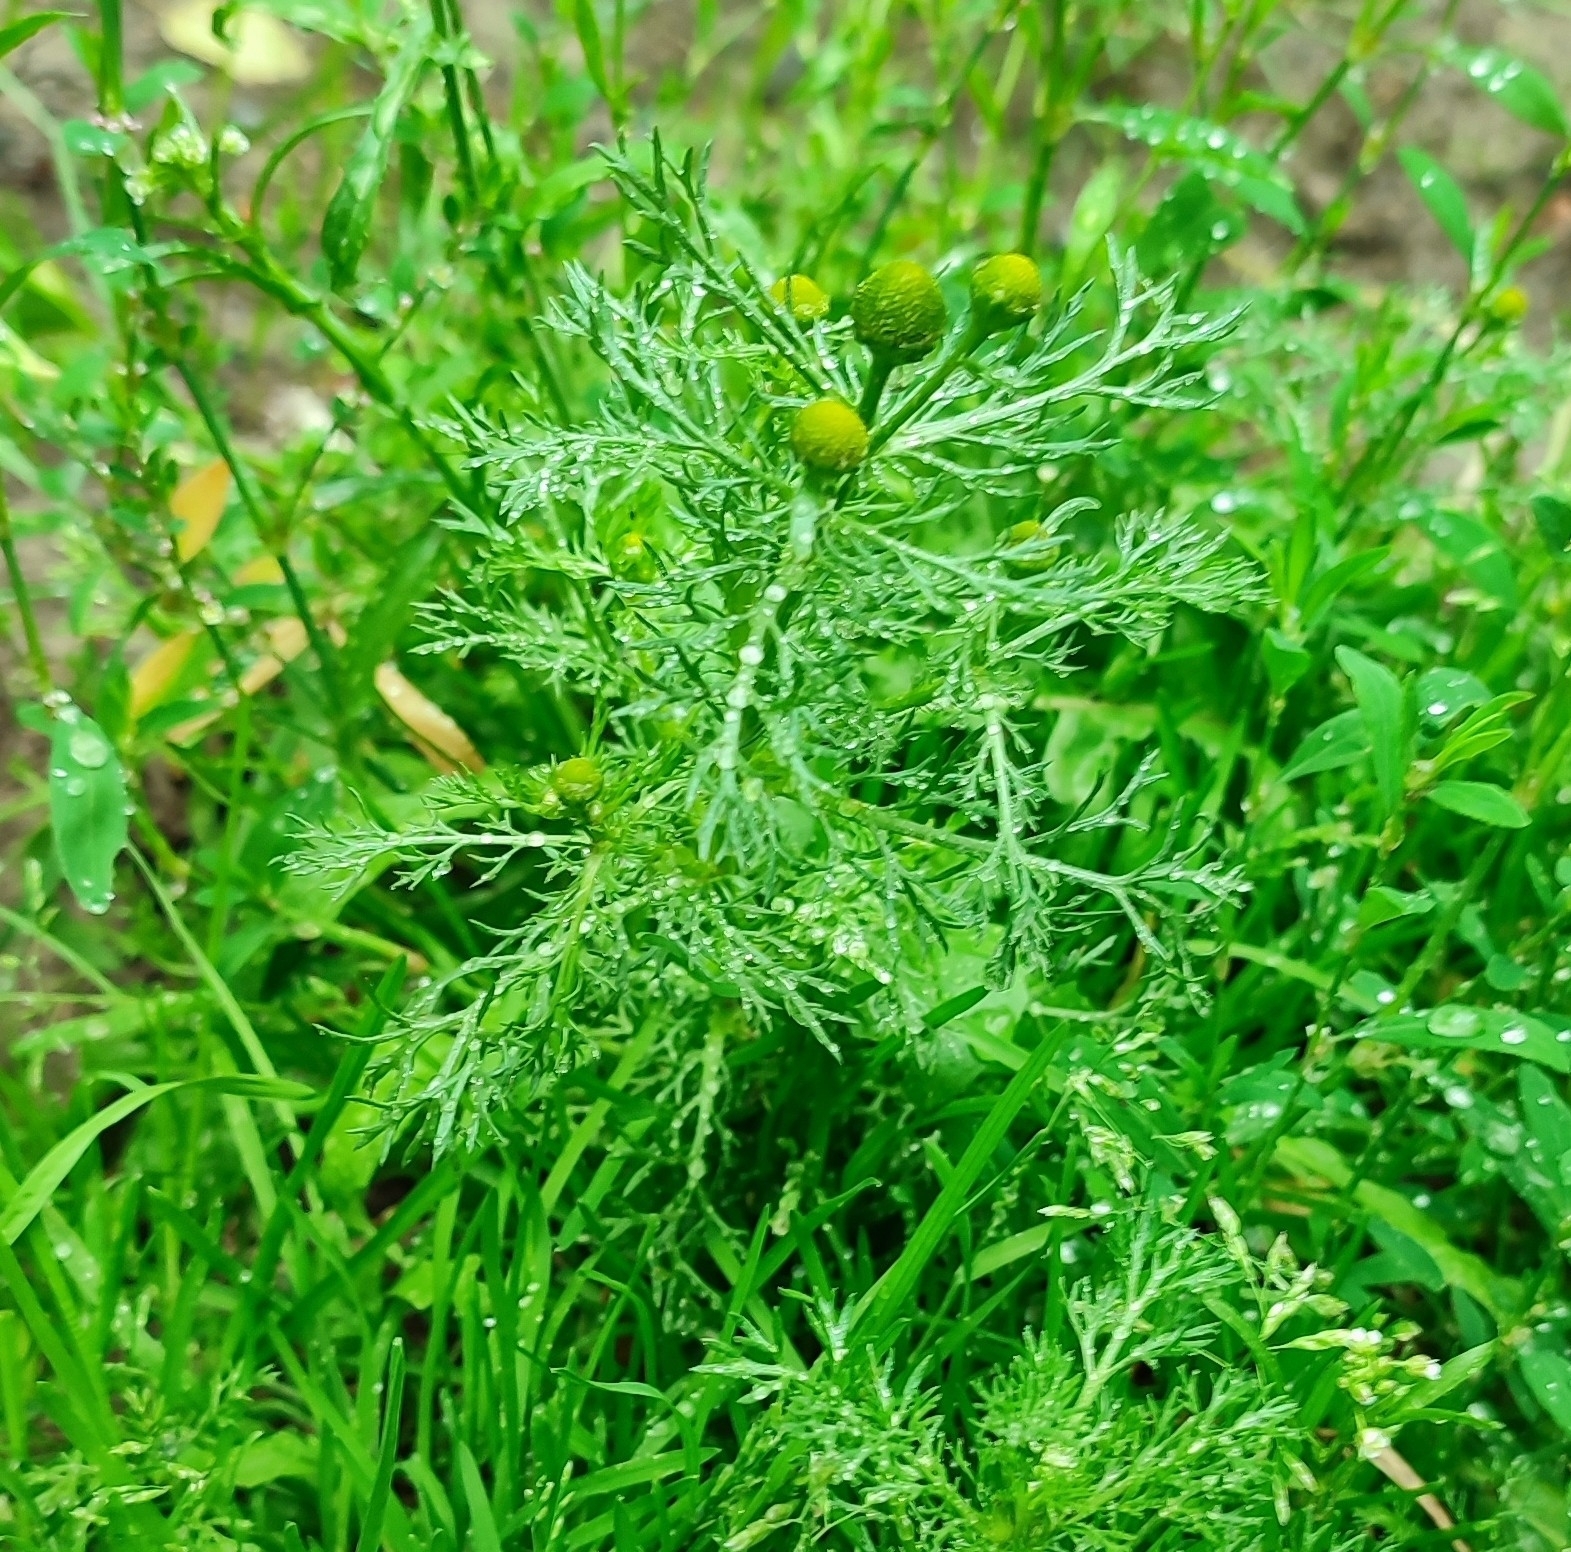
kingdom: Plantae
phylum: Tracheophyta
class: Magnoliopsida
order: Asterales
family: Asteraceae
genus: Matricaria
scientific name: Matricaria discoidea
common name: Disc mayweed
